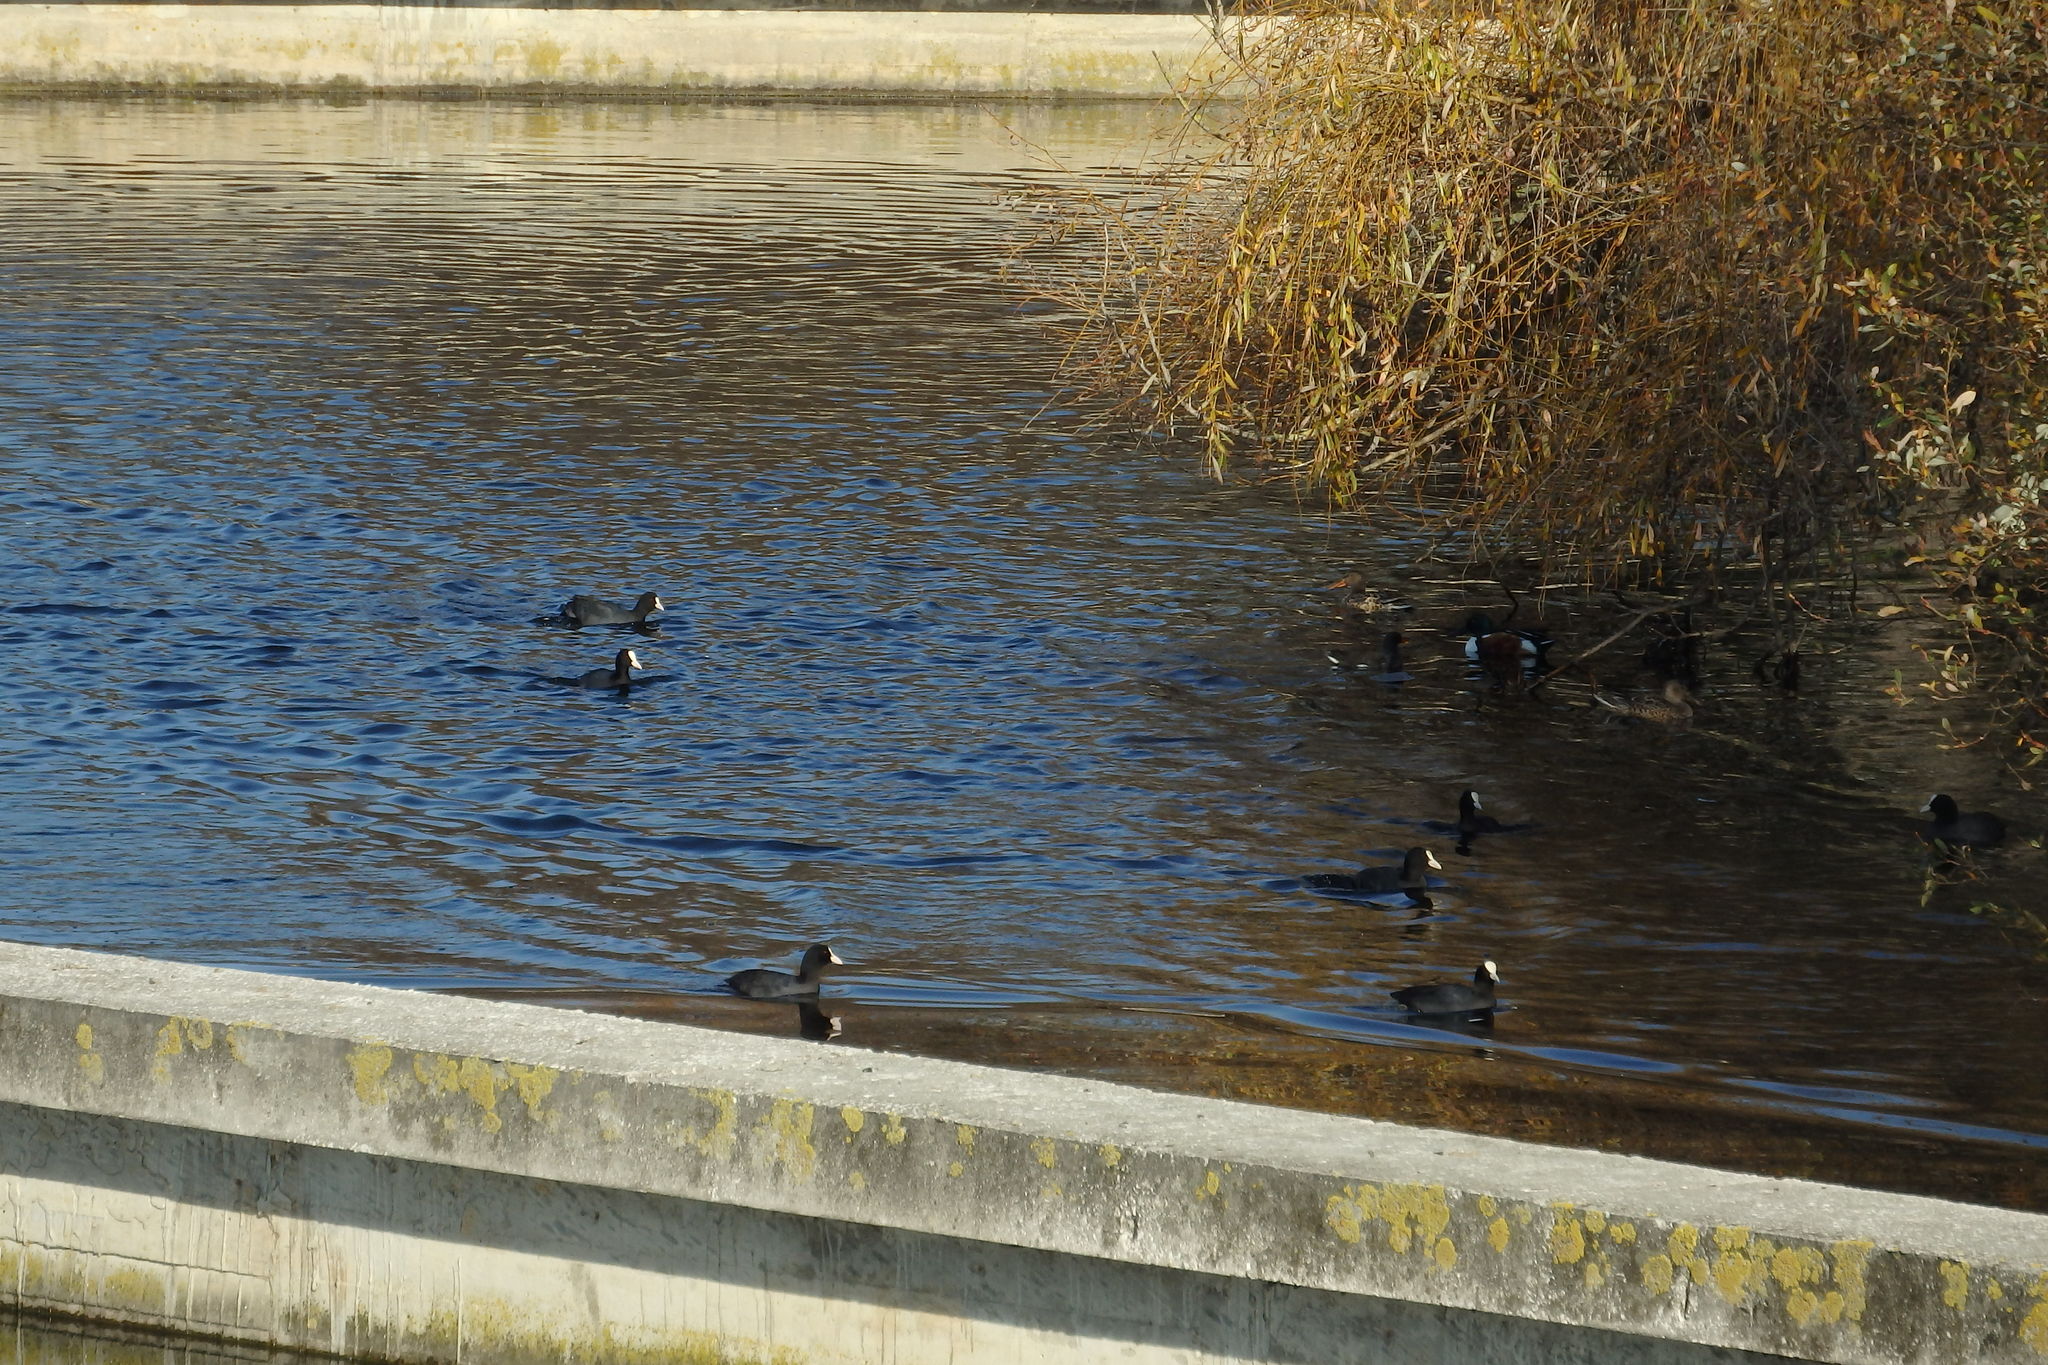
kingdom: Animalia
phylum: Chordata
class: Aves
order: Gruiformes
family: Rallidae
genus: Fulica
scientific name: Fulica atra
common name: Eurasian coot
